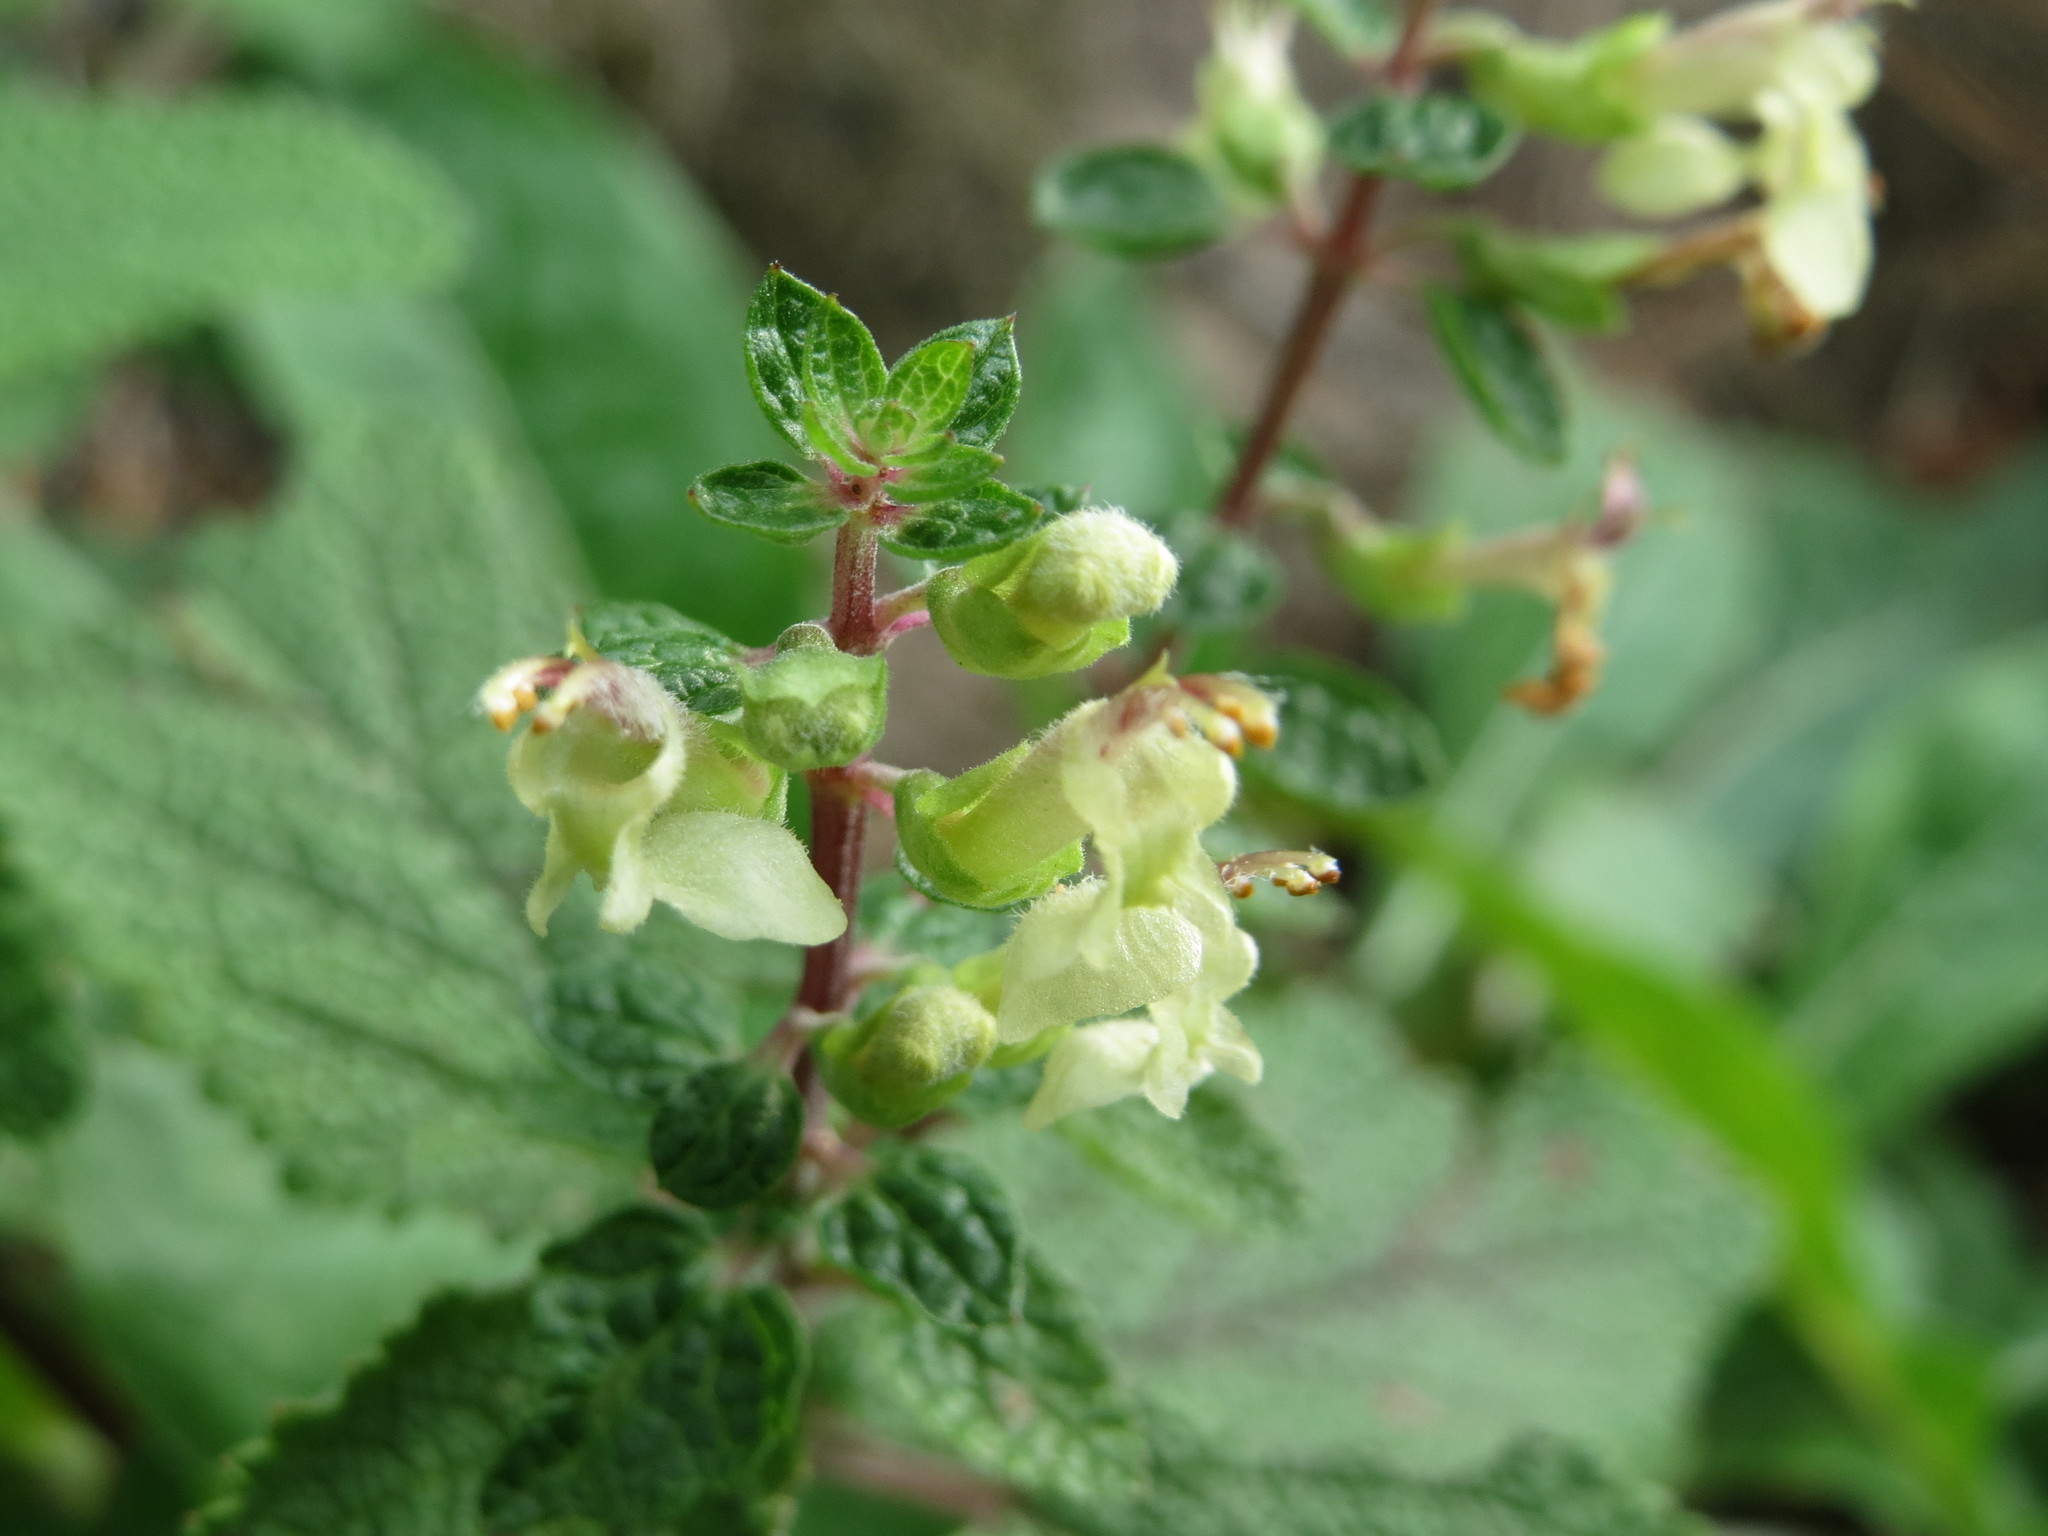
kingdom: Plantae
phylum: Tracheophyta
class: Magnoliopsida
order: Lamiales
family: Lamiaceae
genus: Teucrium
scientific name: Teucrium scorodonia
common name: Woodland germander
